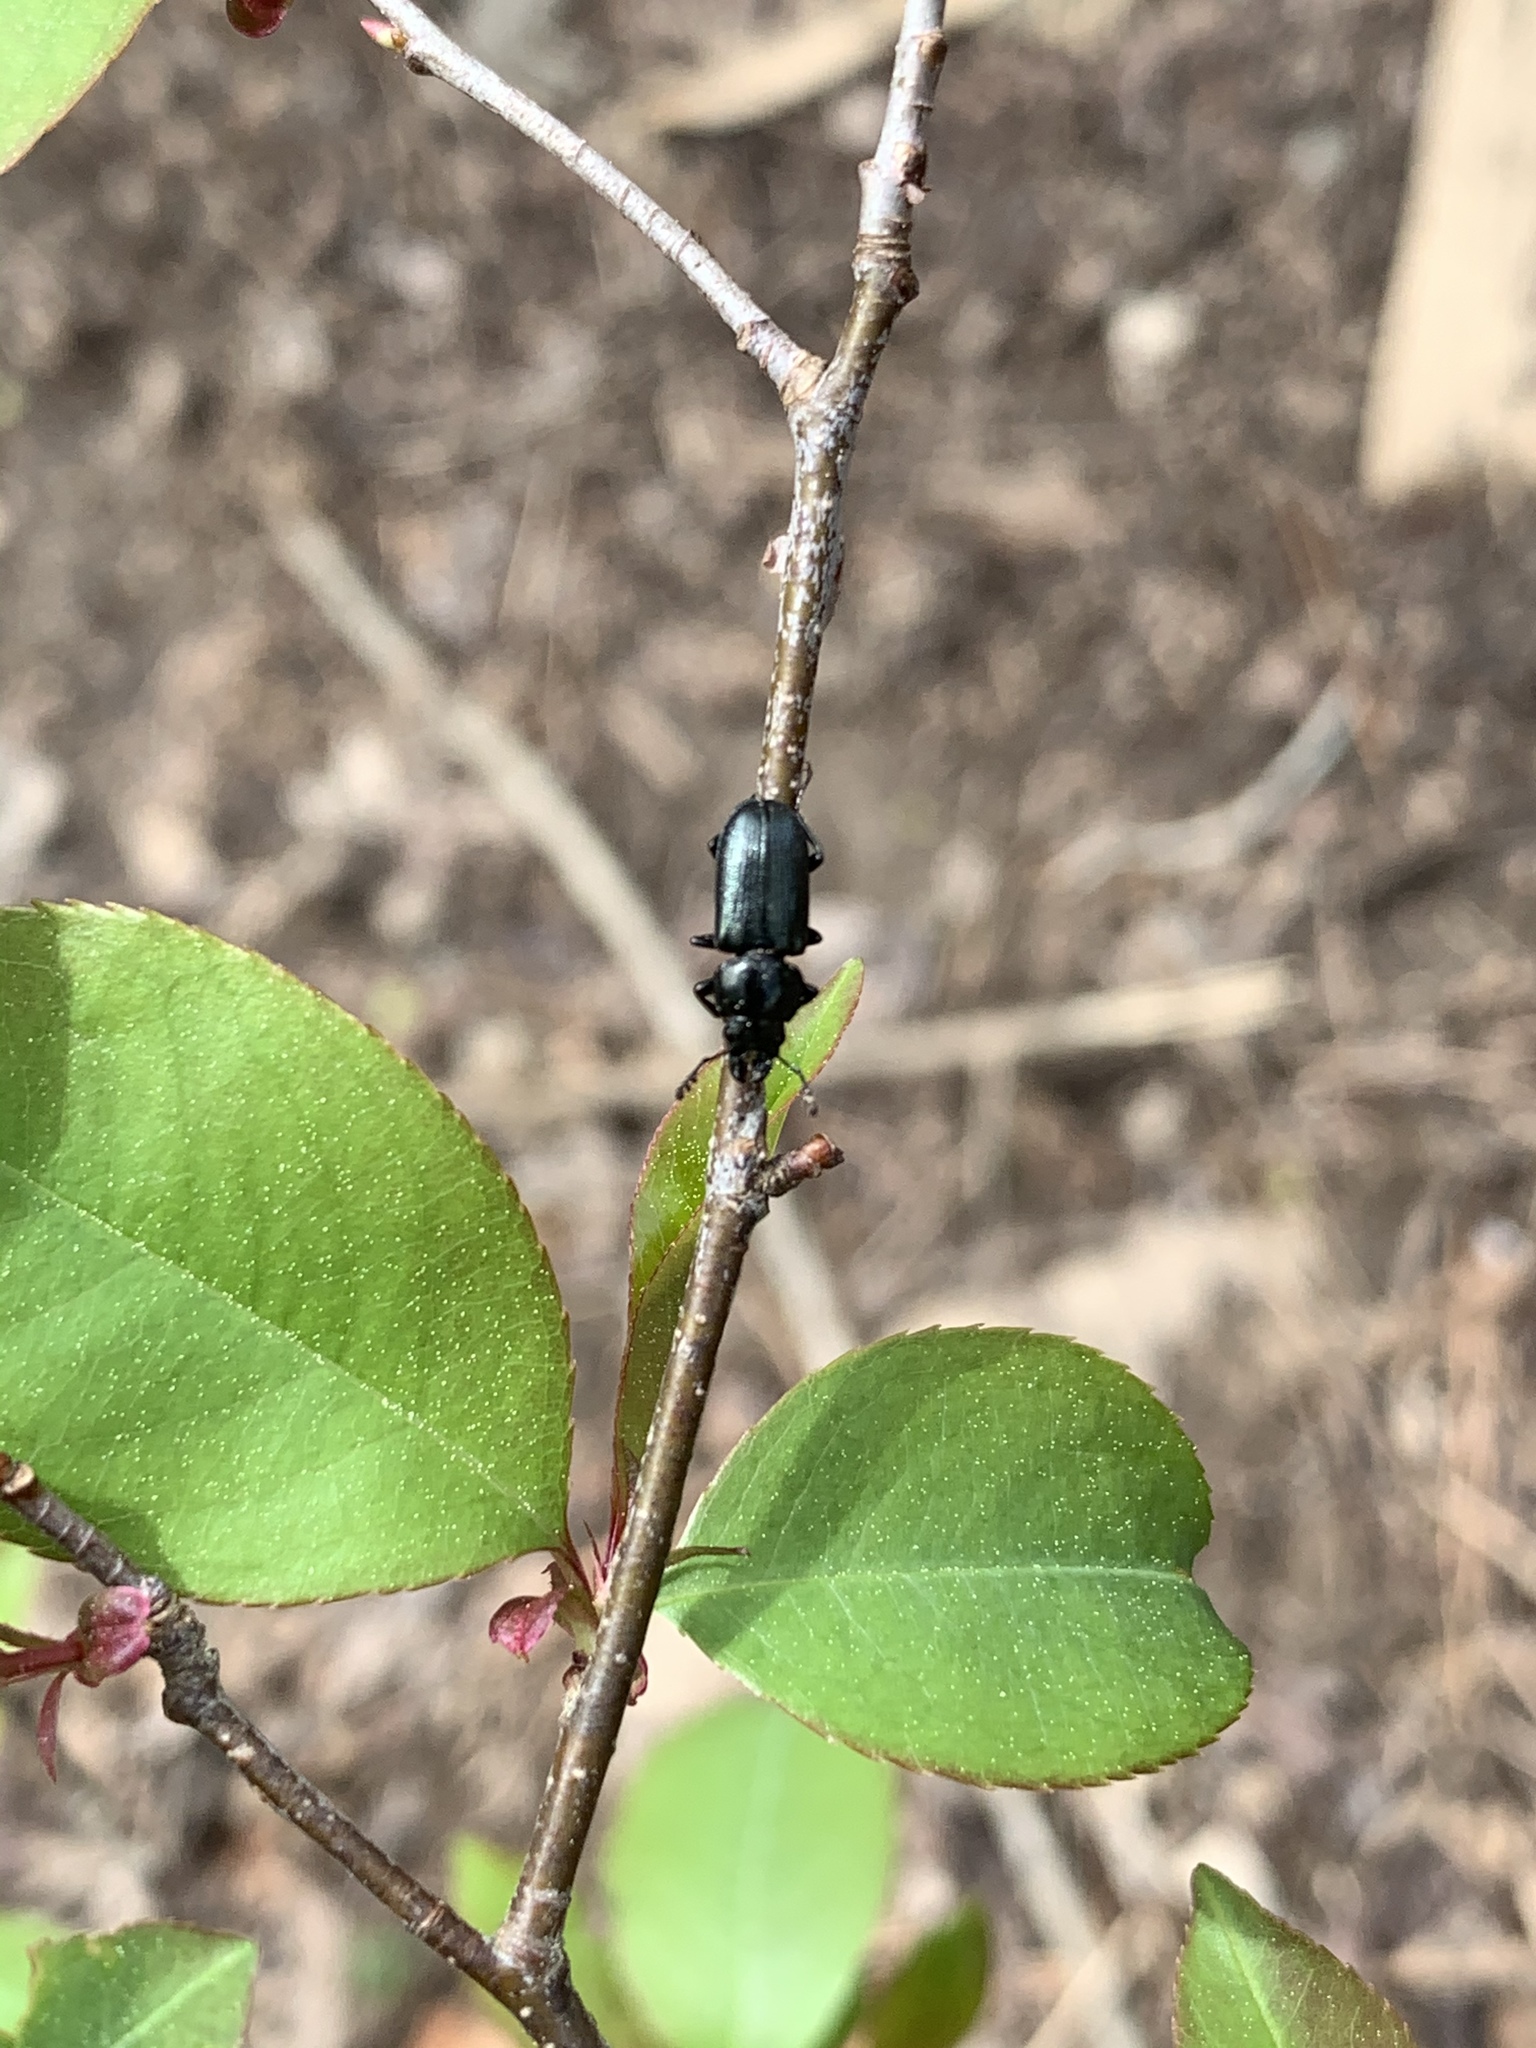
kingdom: Animalia
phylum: Arthropoda
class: Insecta
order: Coleoptera
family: Lucanidae
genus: Platycerus
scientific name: Platycerus quercus
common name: Oak stag beetle
